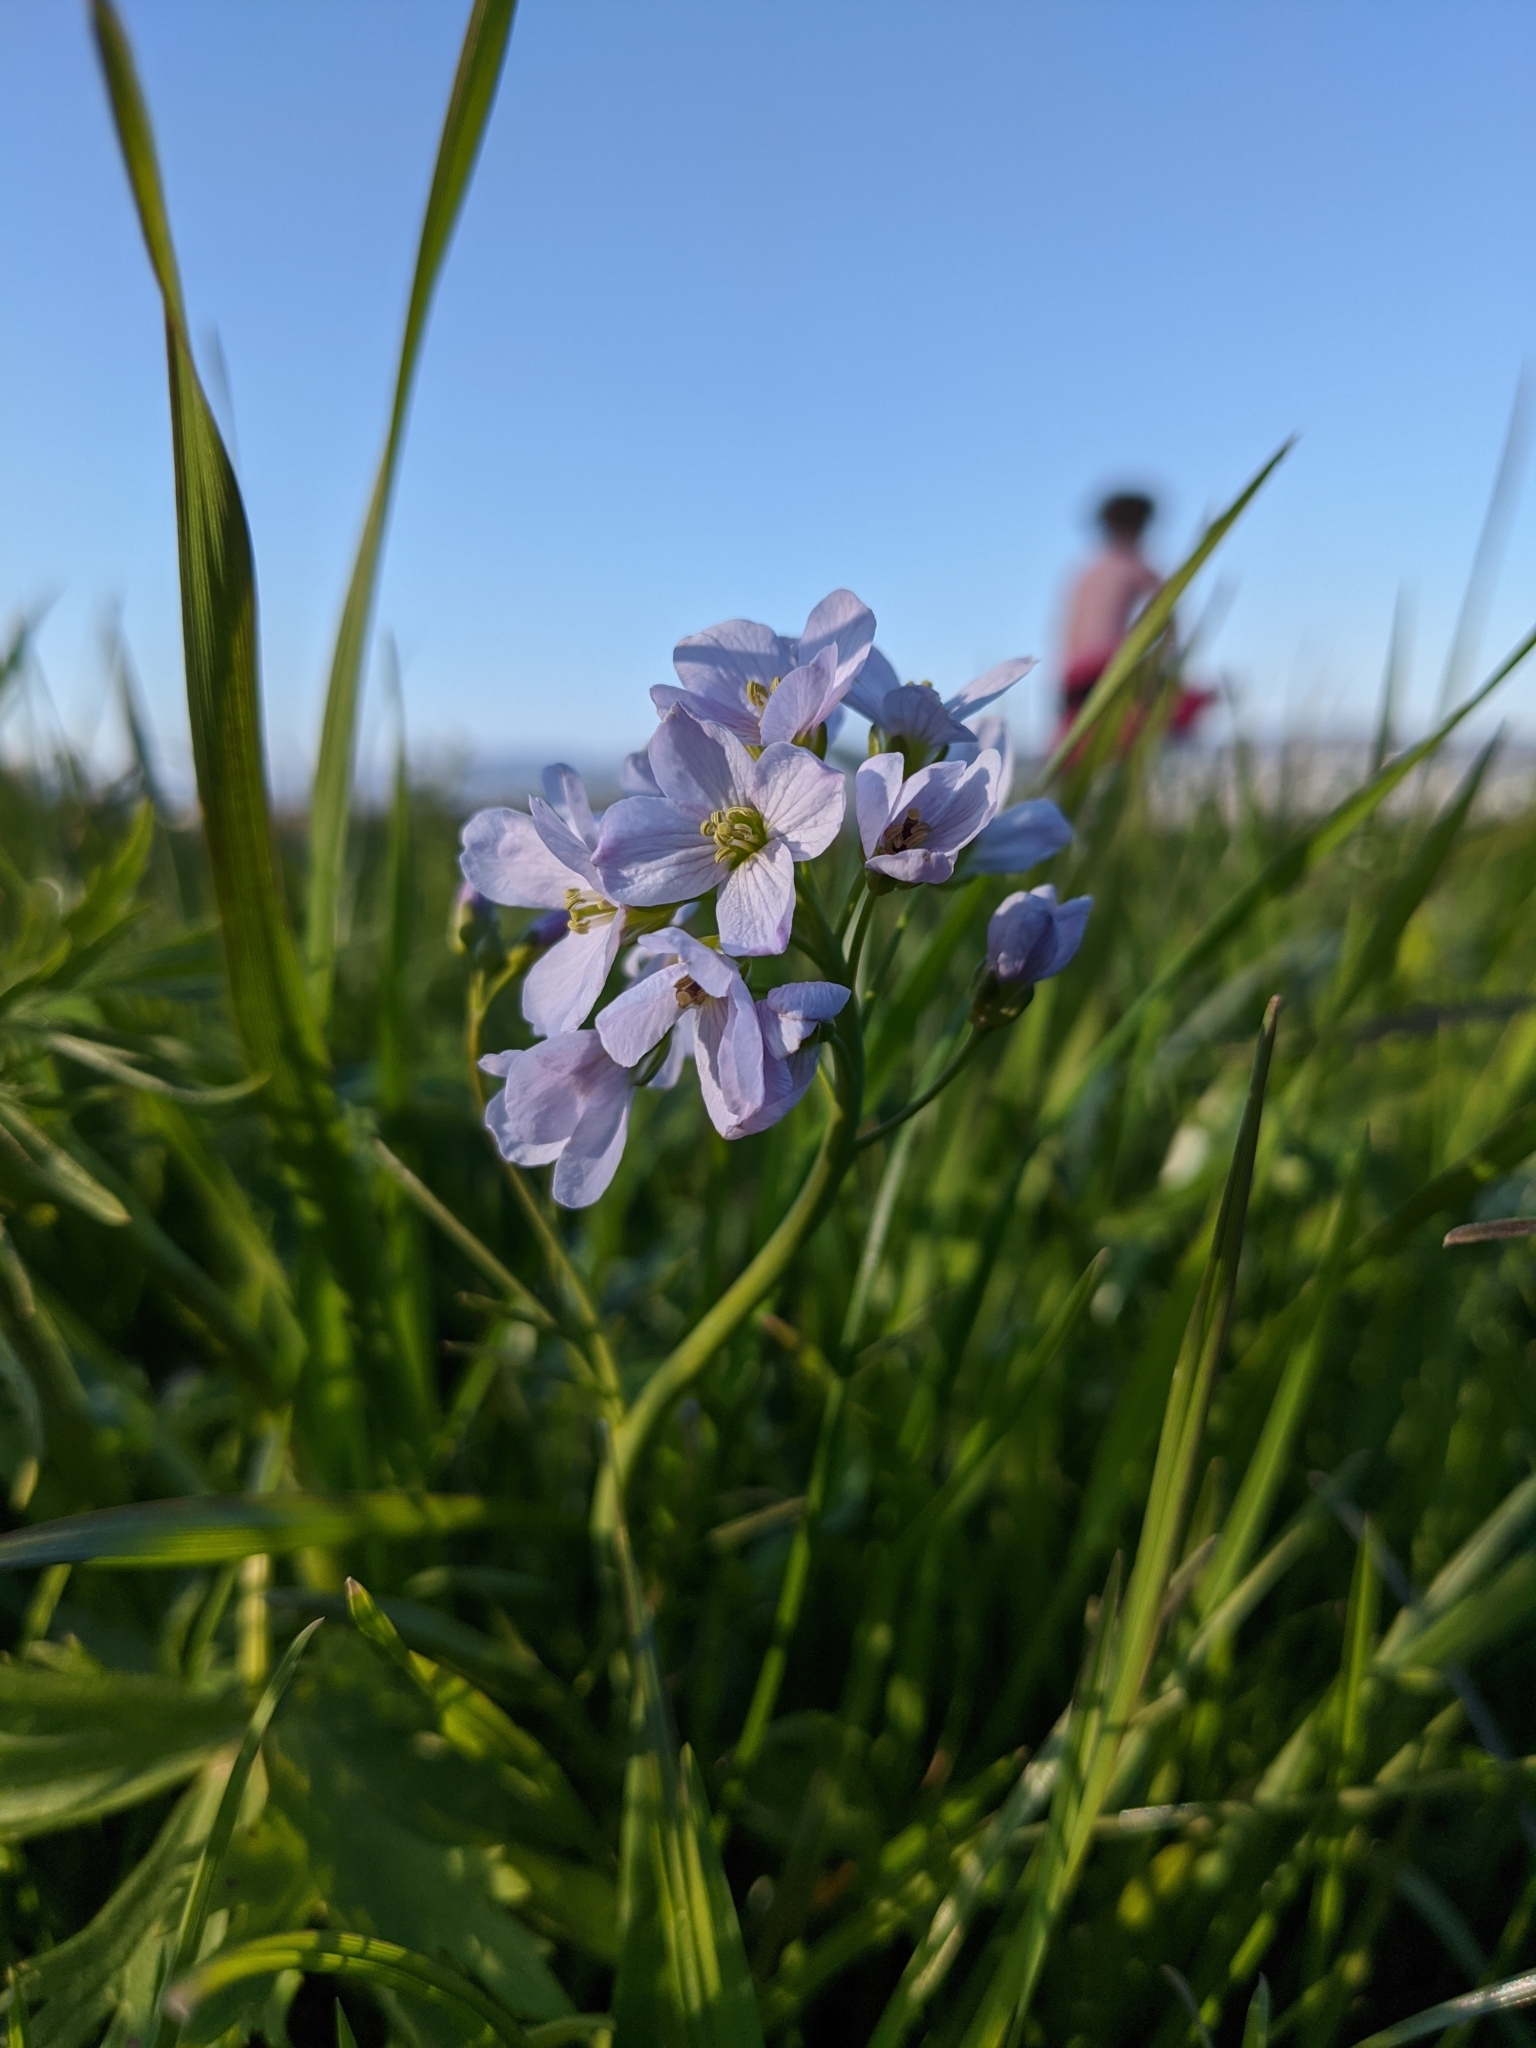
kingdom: Plantae
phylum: Tracheophyta
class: Magnoliopsida
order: Brassicales
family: Brassicaceae
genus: Cardamine
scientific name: Cardamine pratensis
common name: Cuckoo flower
